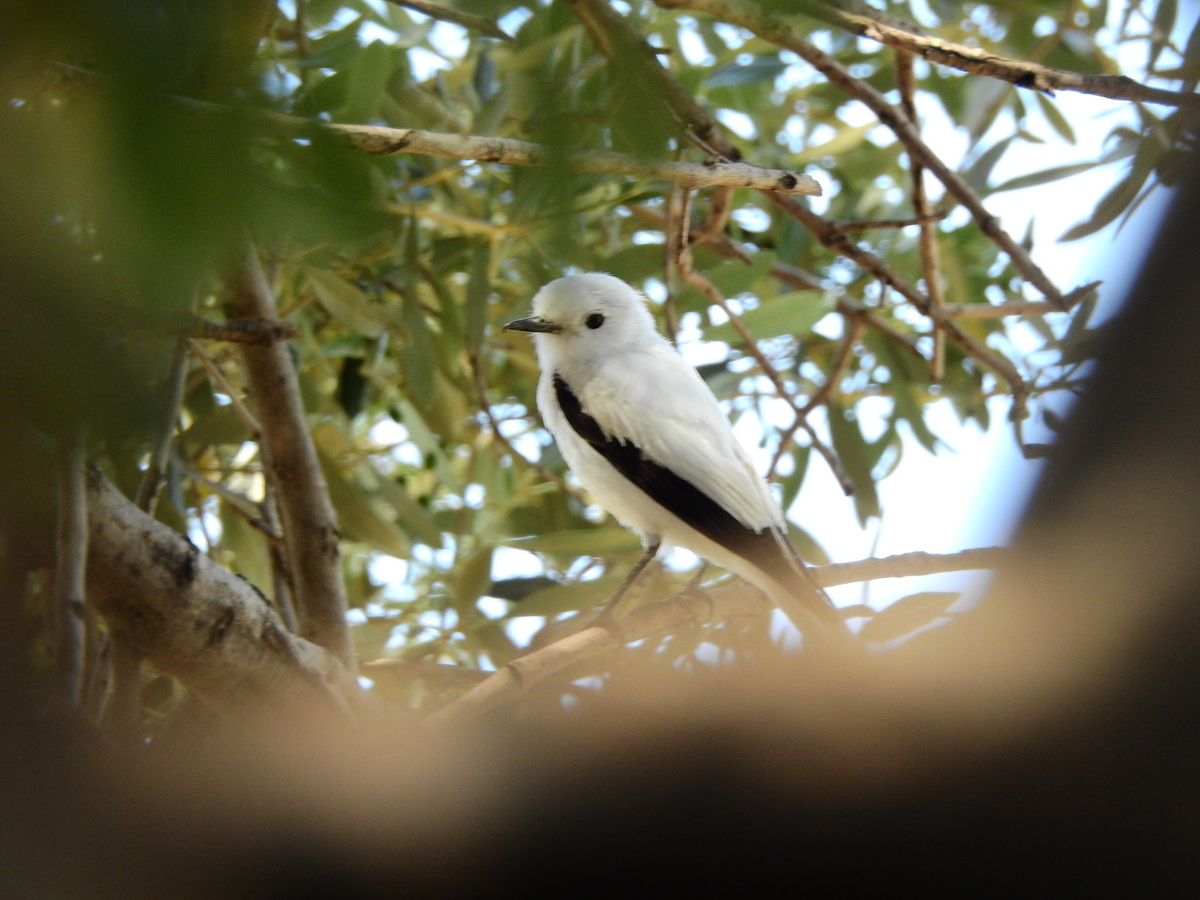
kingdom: Animalia
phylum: Chordata
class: Aves
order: Passeriformes
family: Tyrannidae
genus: Xolmis
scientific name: Xolmis irupero
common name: White monjita
